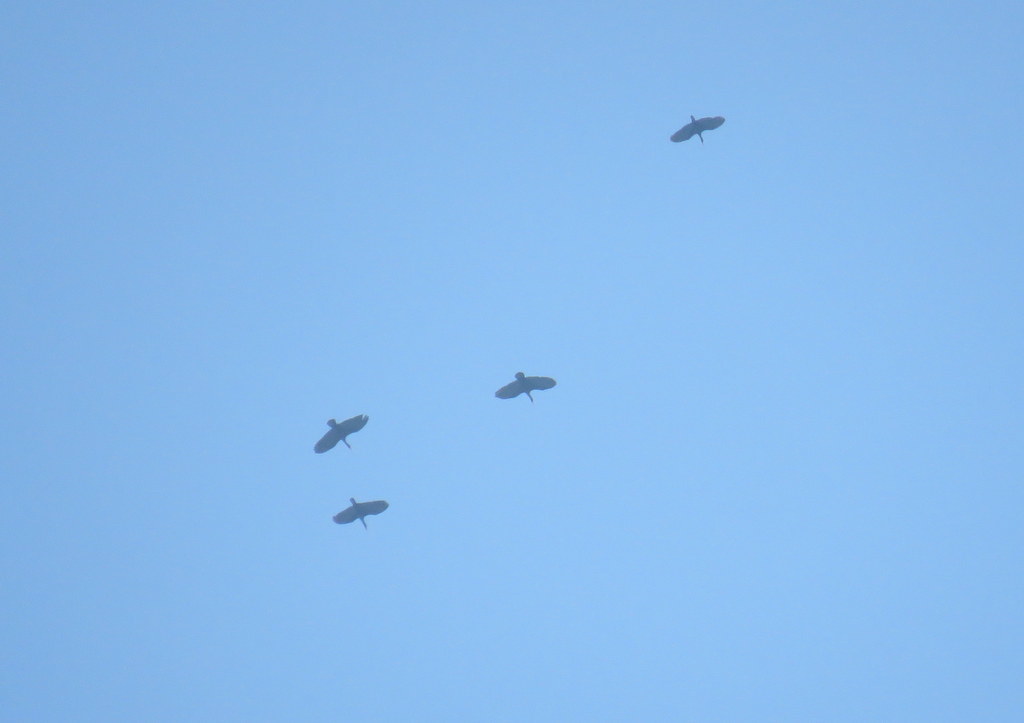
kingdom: Animalia
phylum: Chordata
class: Aves
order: Pelecaniformes
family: Threskiornithidae
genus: Phimosus
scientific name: Phimosus infuscatus
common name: Bare-faced ibis
